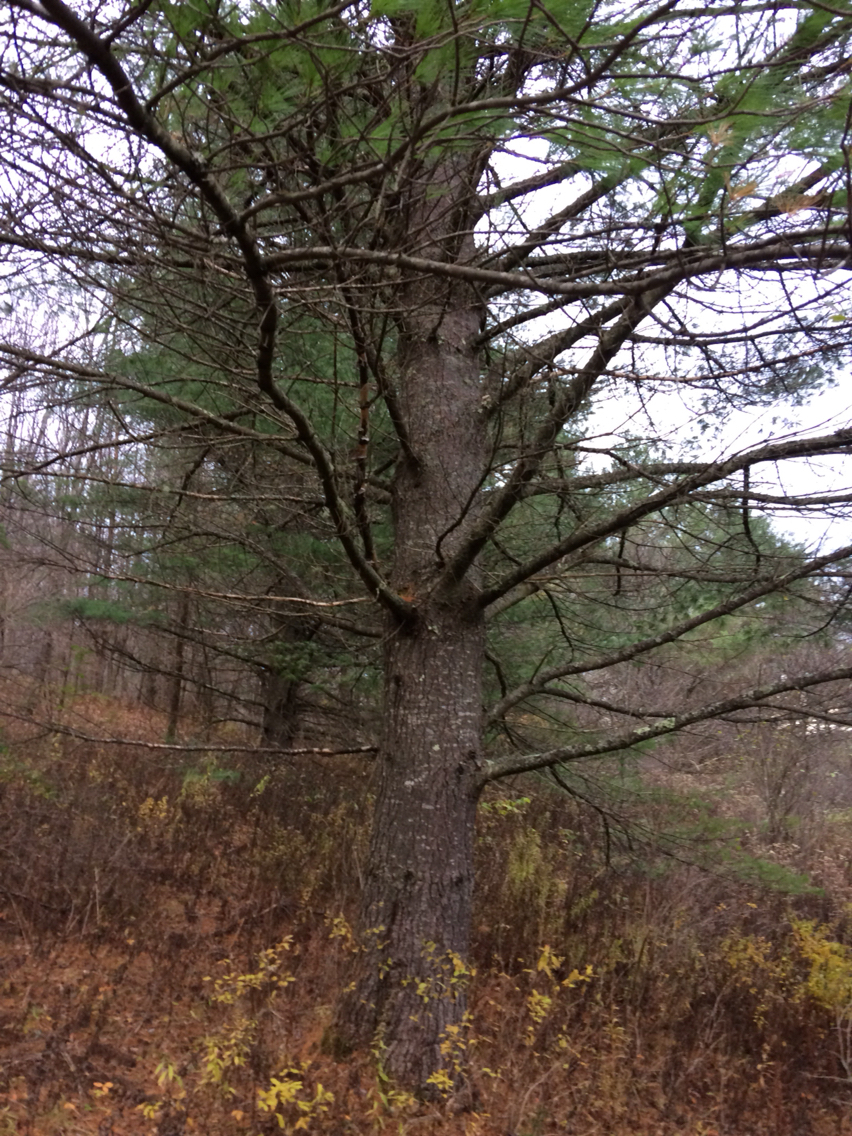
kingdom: Plantae
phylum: Tracheophyta
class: Pinopsida
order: Pinales
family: Pinaceae
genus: Pinus
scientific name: Pinus strobus
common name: Weymouth pine
